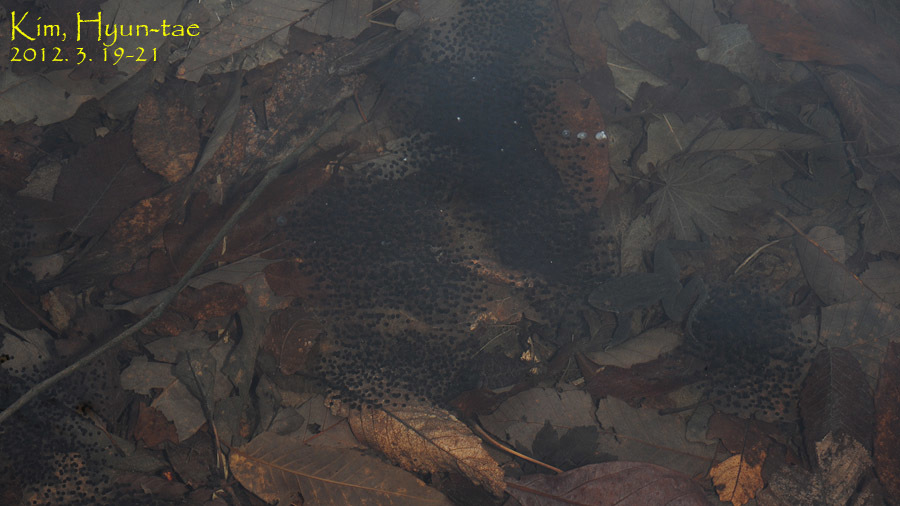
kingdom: Animalia
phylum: Chordata
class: Amphibia
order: Anura
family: Ranidae
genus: Rana
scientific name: Rana huanrenensis
